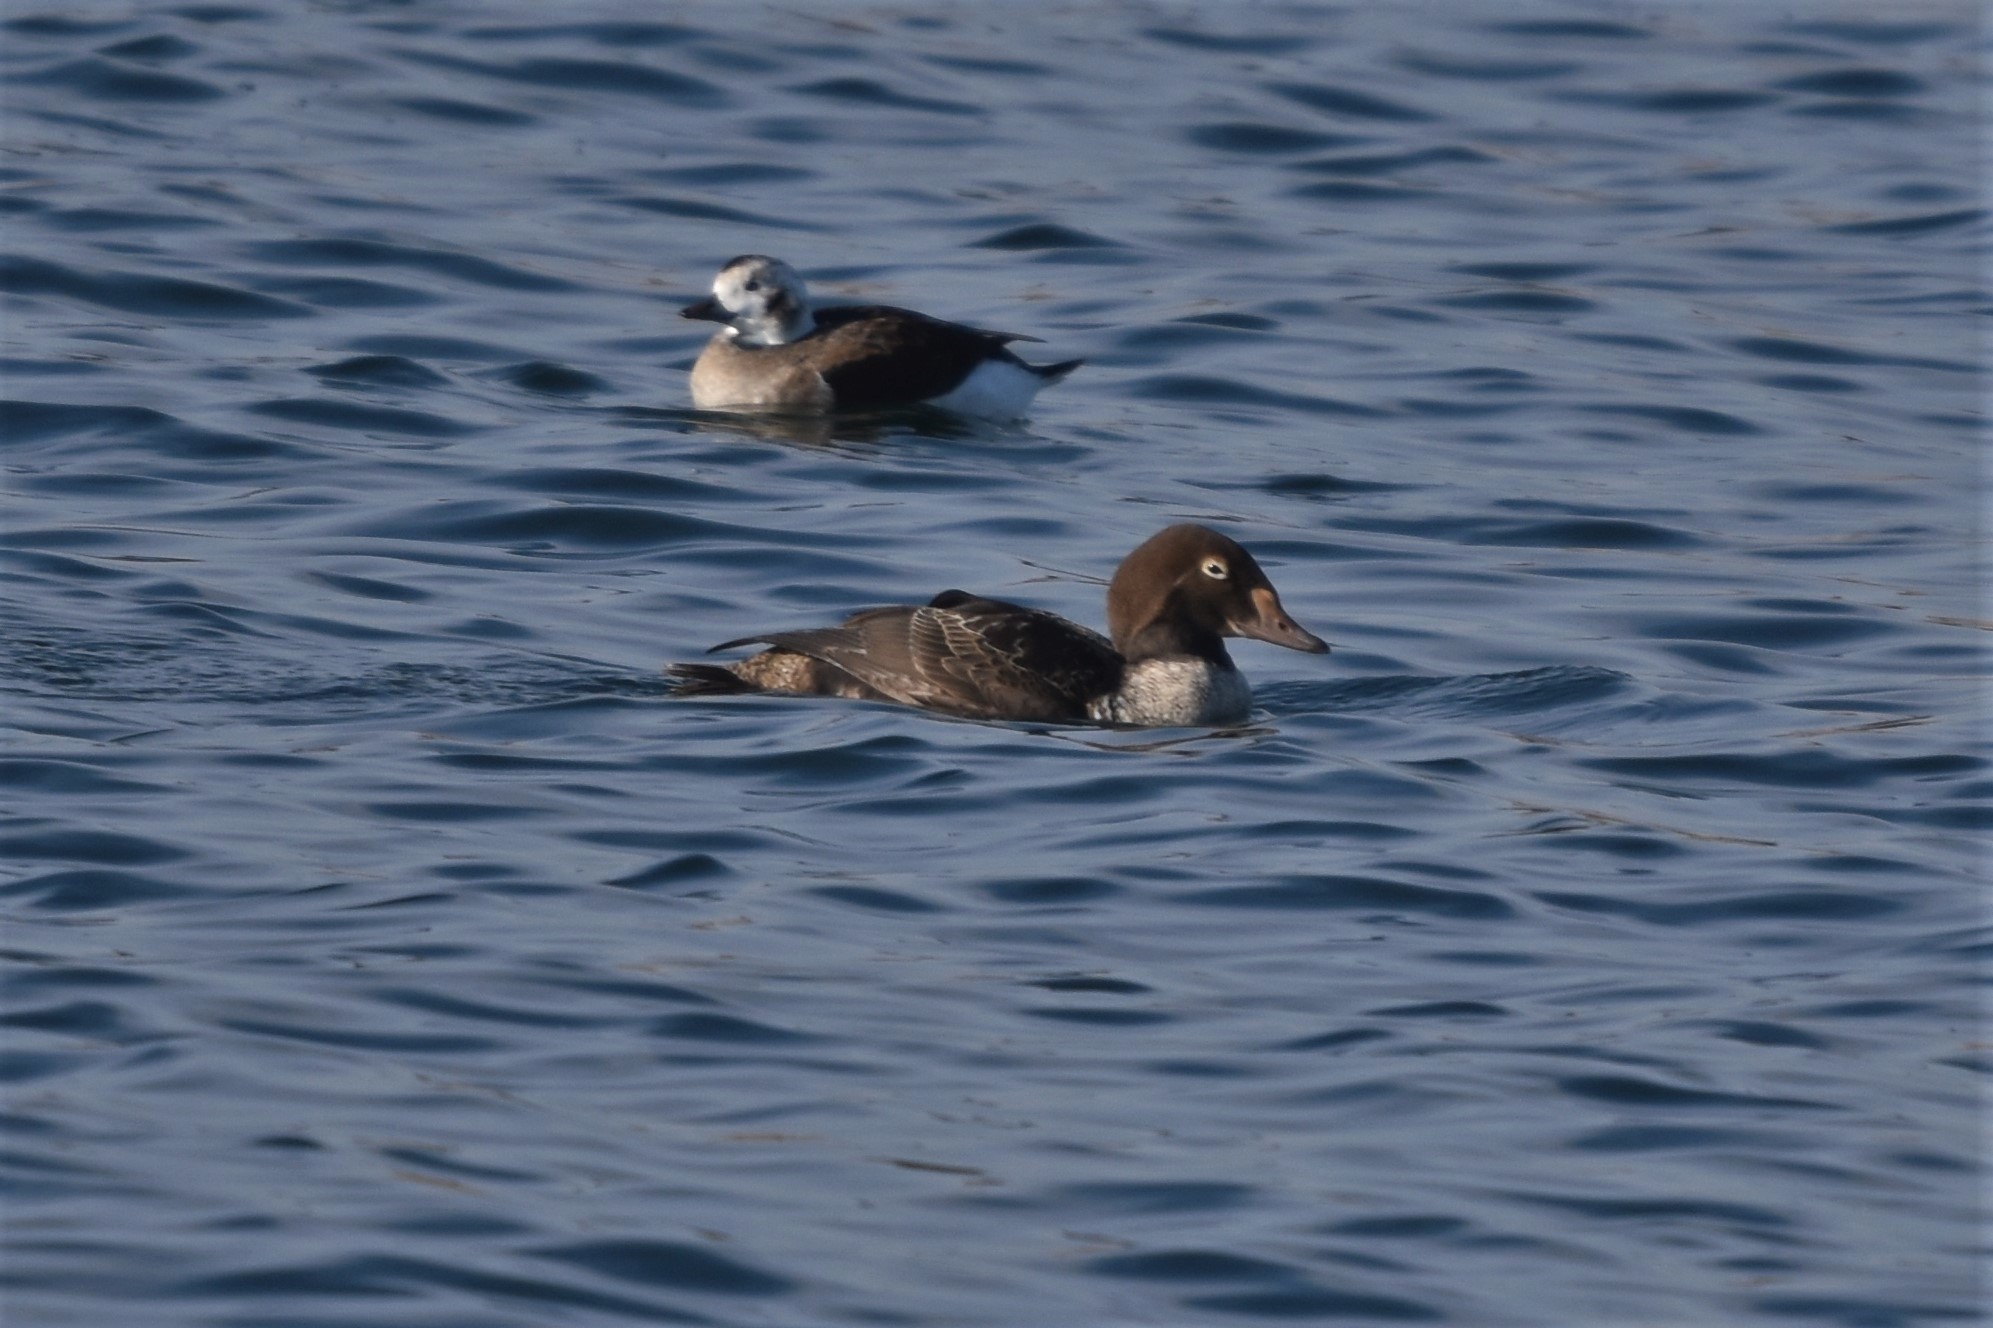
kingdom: Animalia
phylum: Chordata
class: Aves
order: Anseriformes
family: Anatidae
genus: Somateria
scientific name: Somateria spectabilis
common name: King eider
